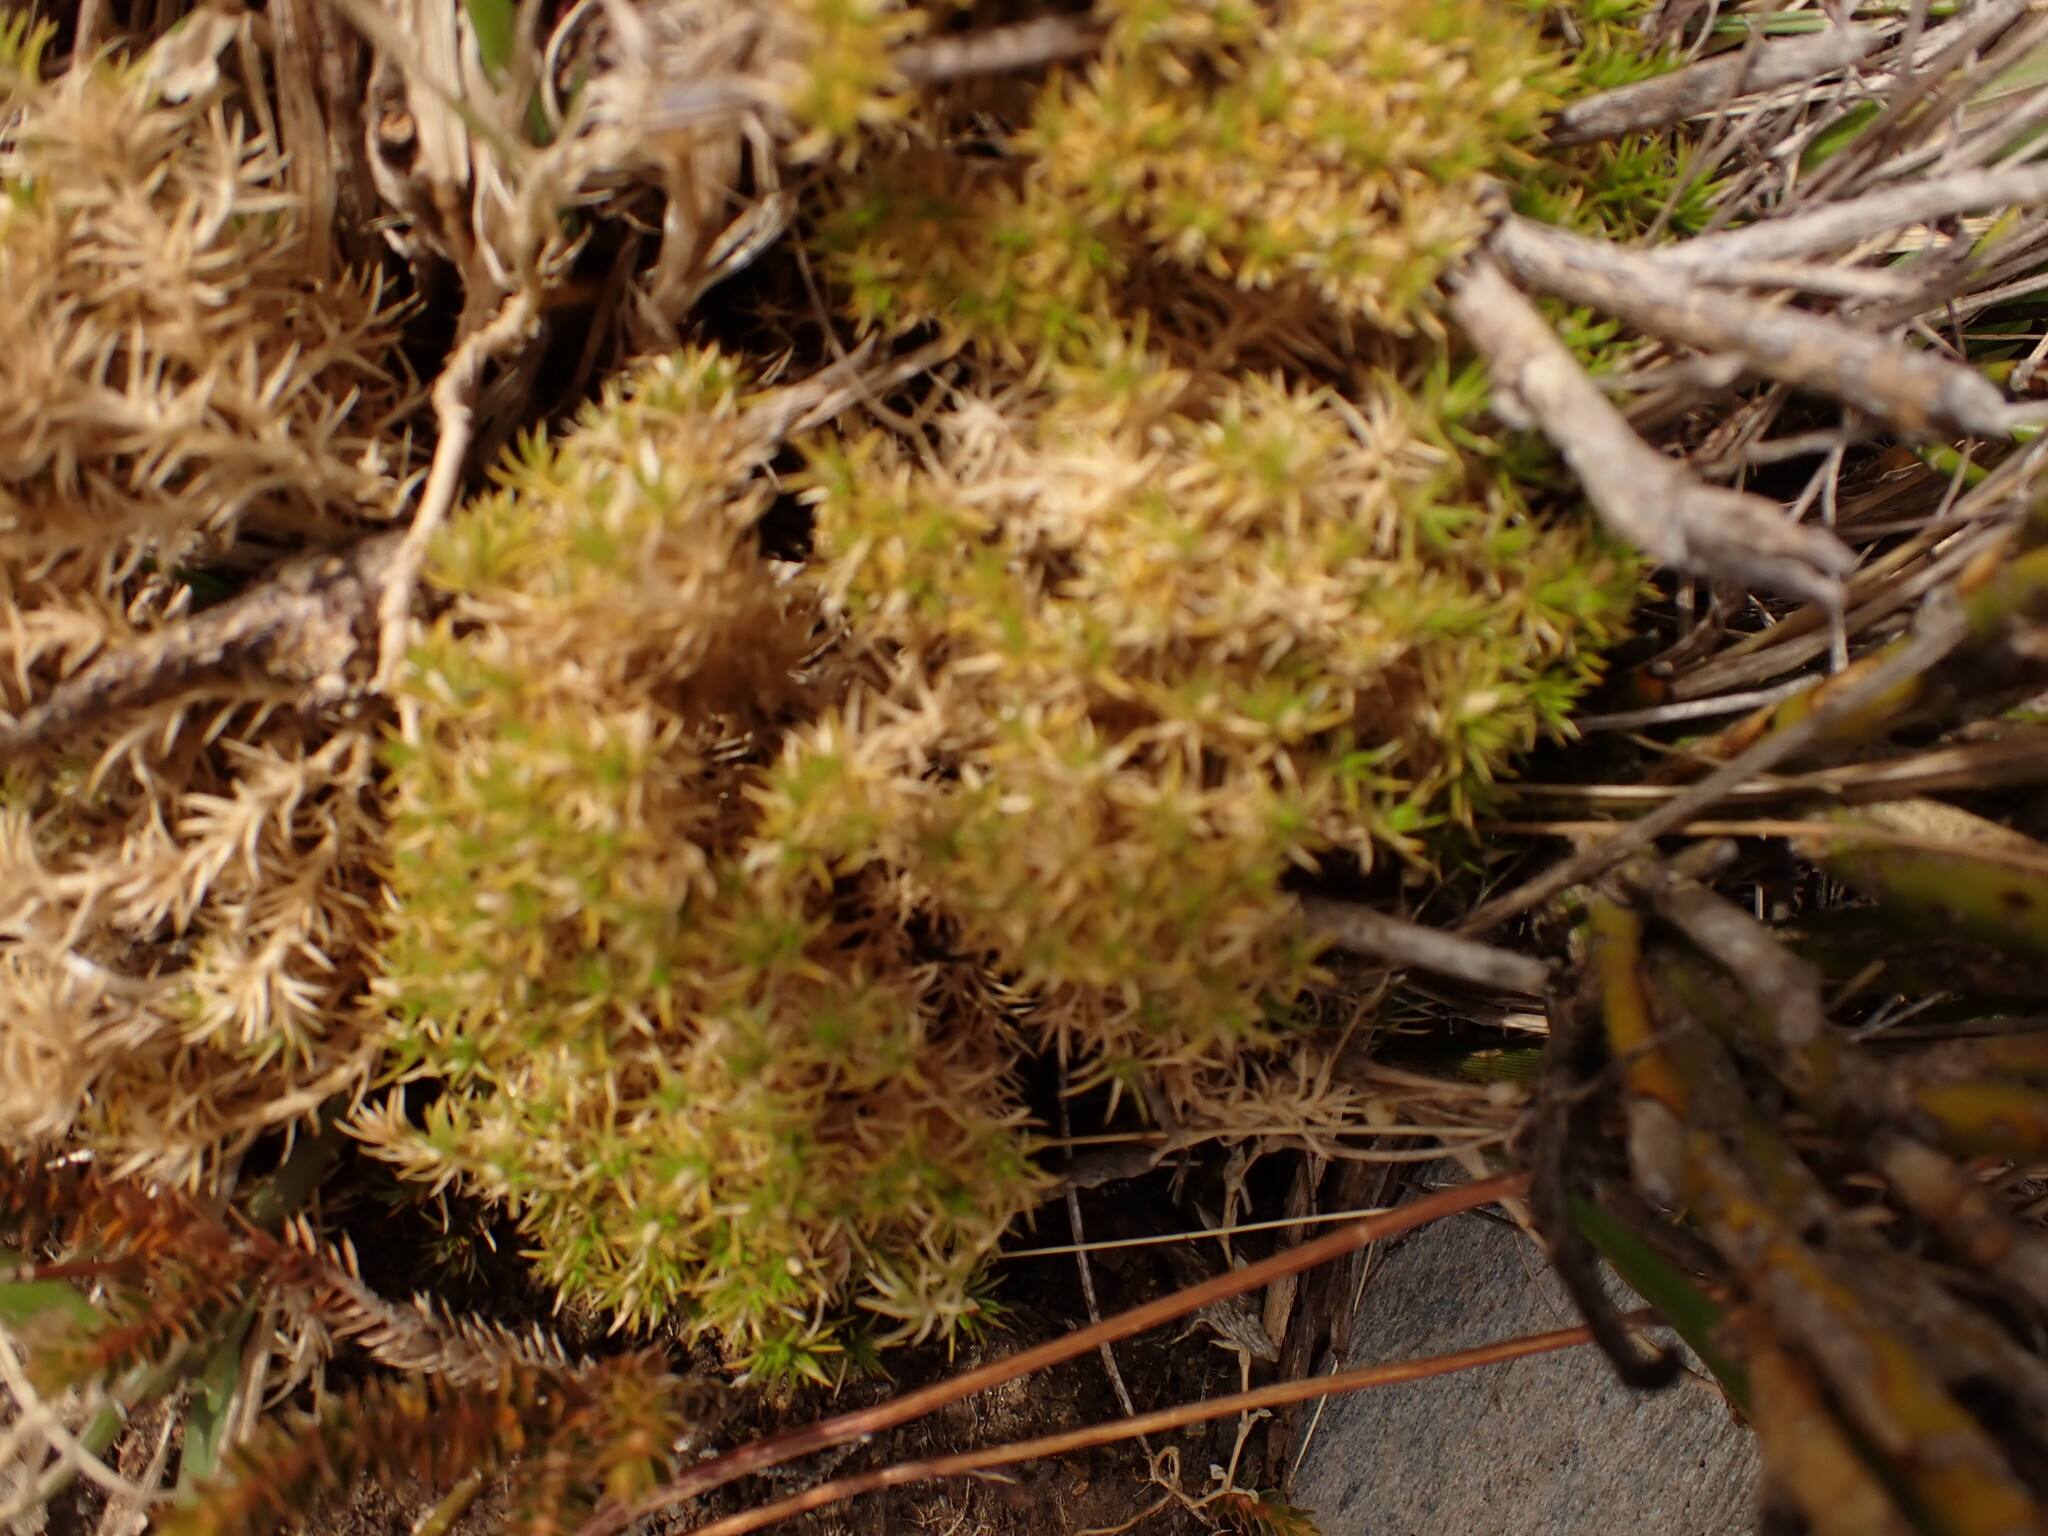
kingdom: Plantae
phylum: Tracheophyta
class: Magnoliopsida
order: Caryophyllales
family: Caryophyllaceae
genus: Scleranthus
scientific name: Scleranthus uniflorus
